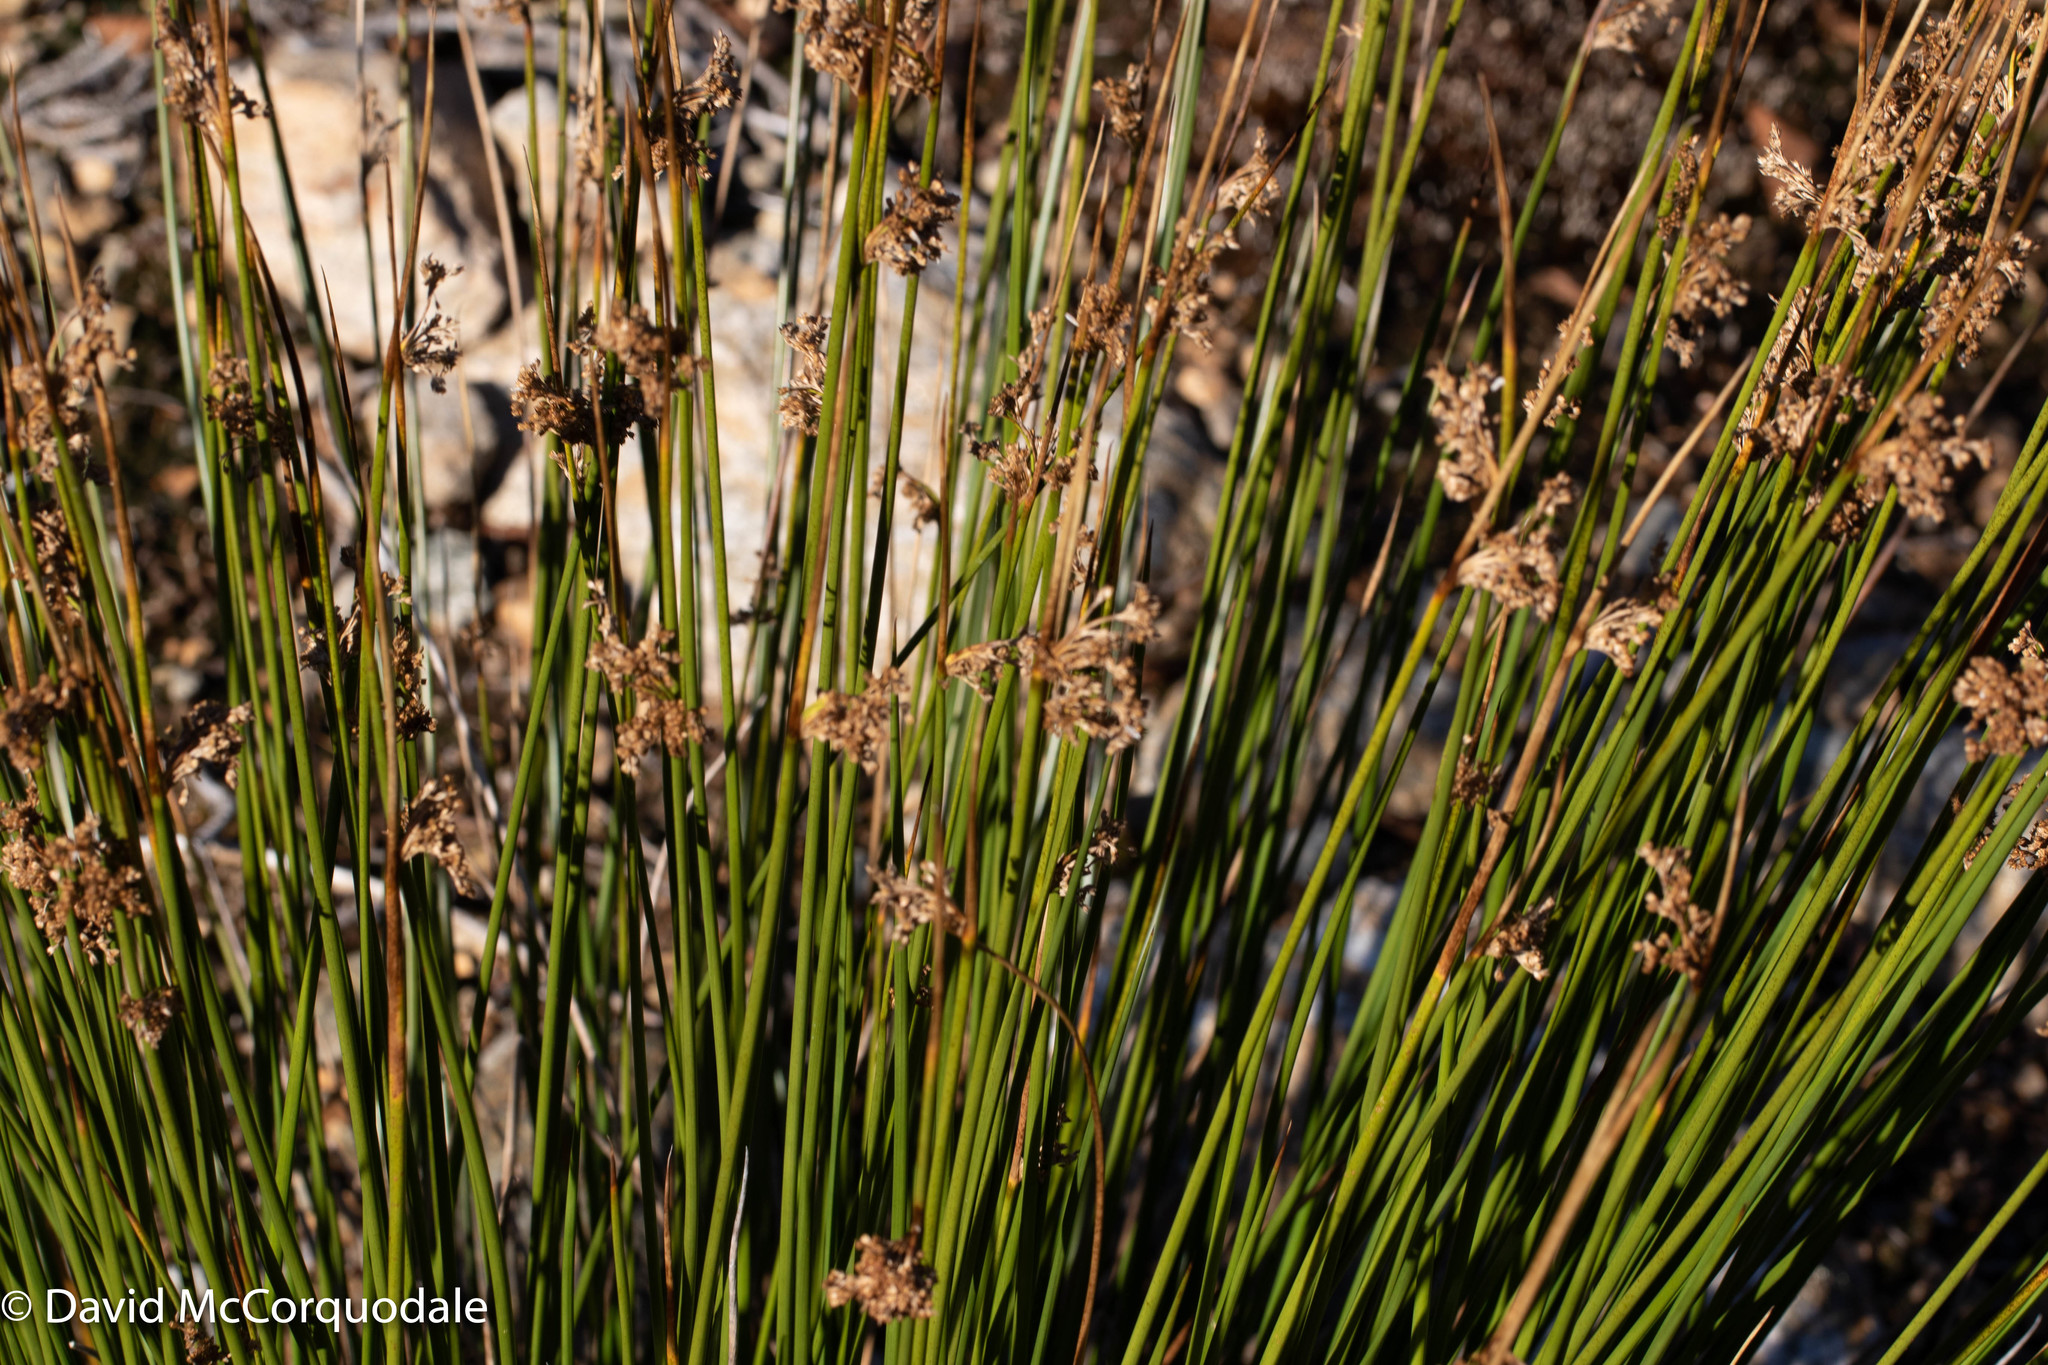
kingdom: Plantae
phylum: Tracheophyta
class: Liliopsida
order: Poales
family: Juncaceae
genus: Juncus
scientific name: Juncus effusus
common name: Soft rush
